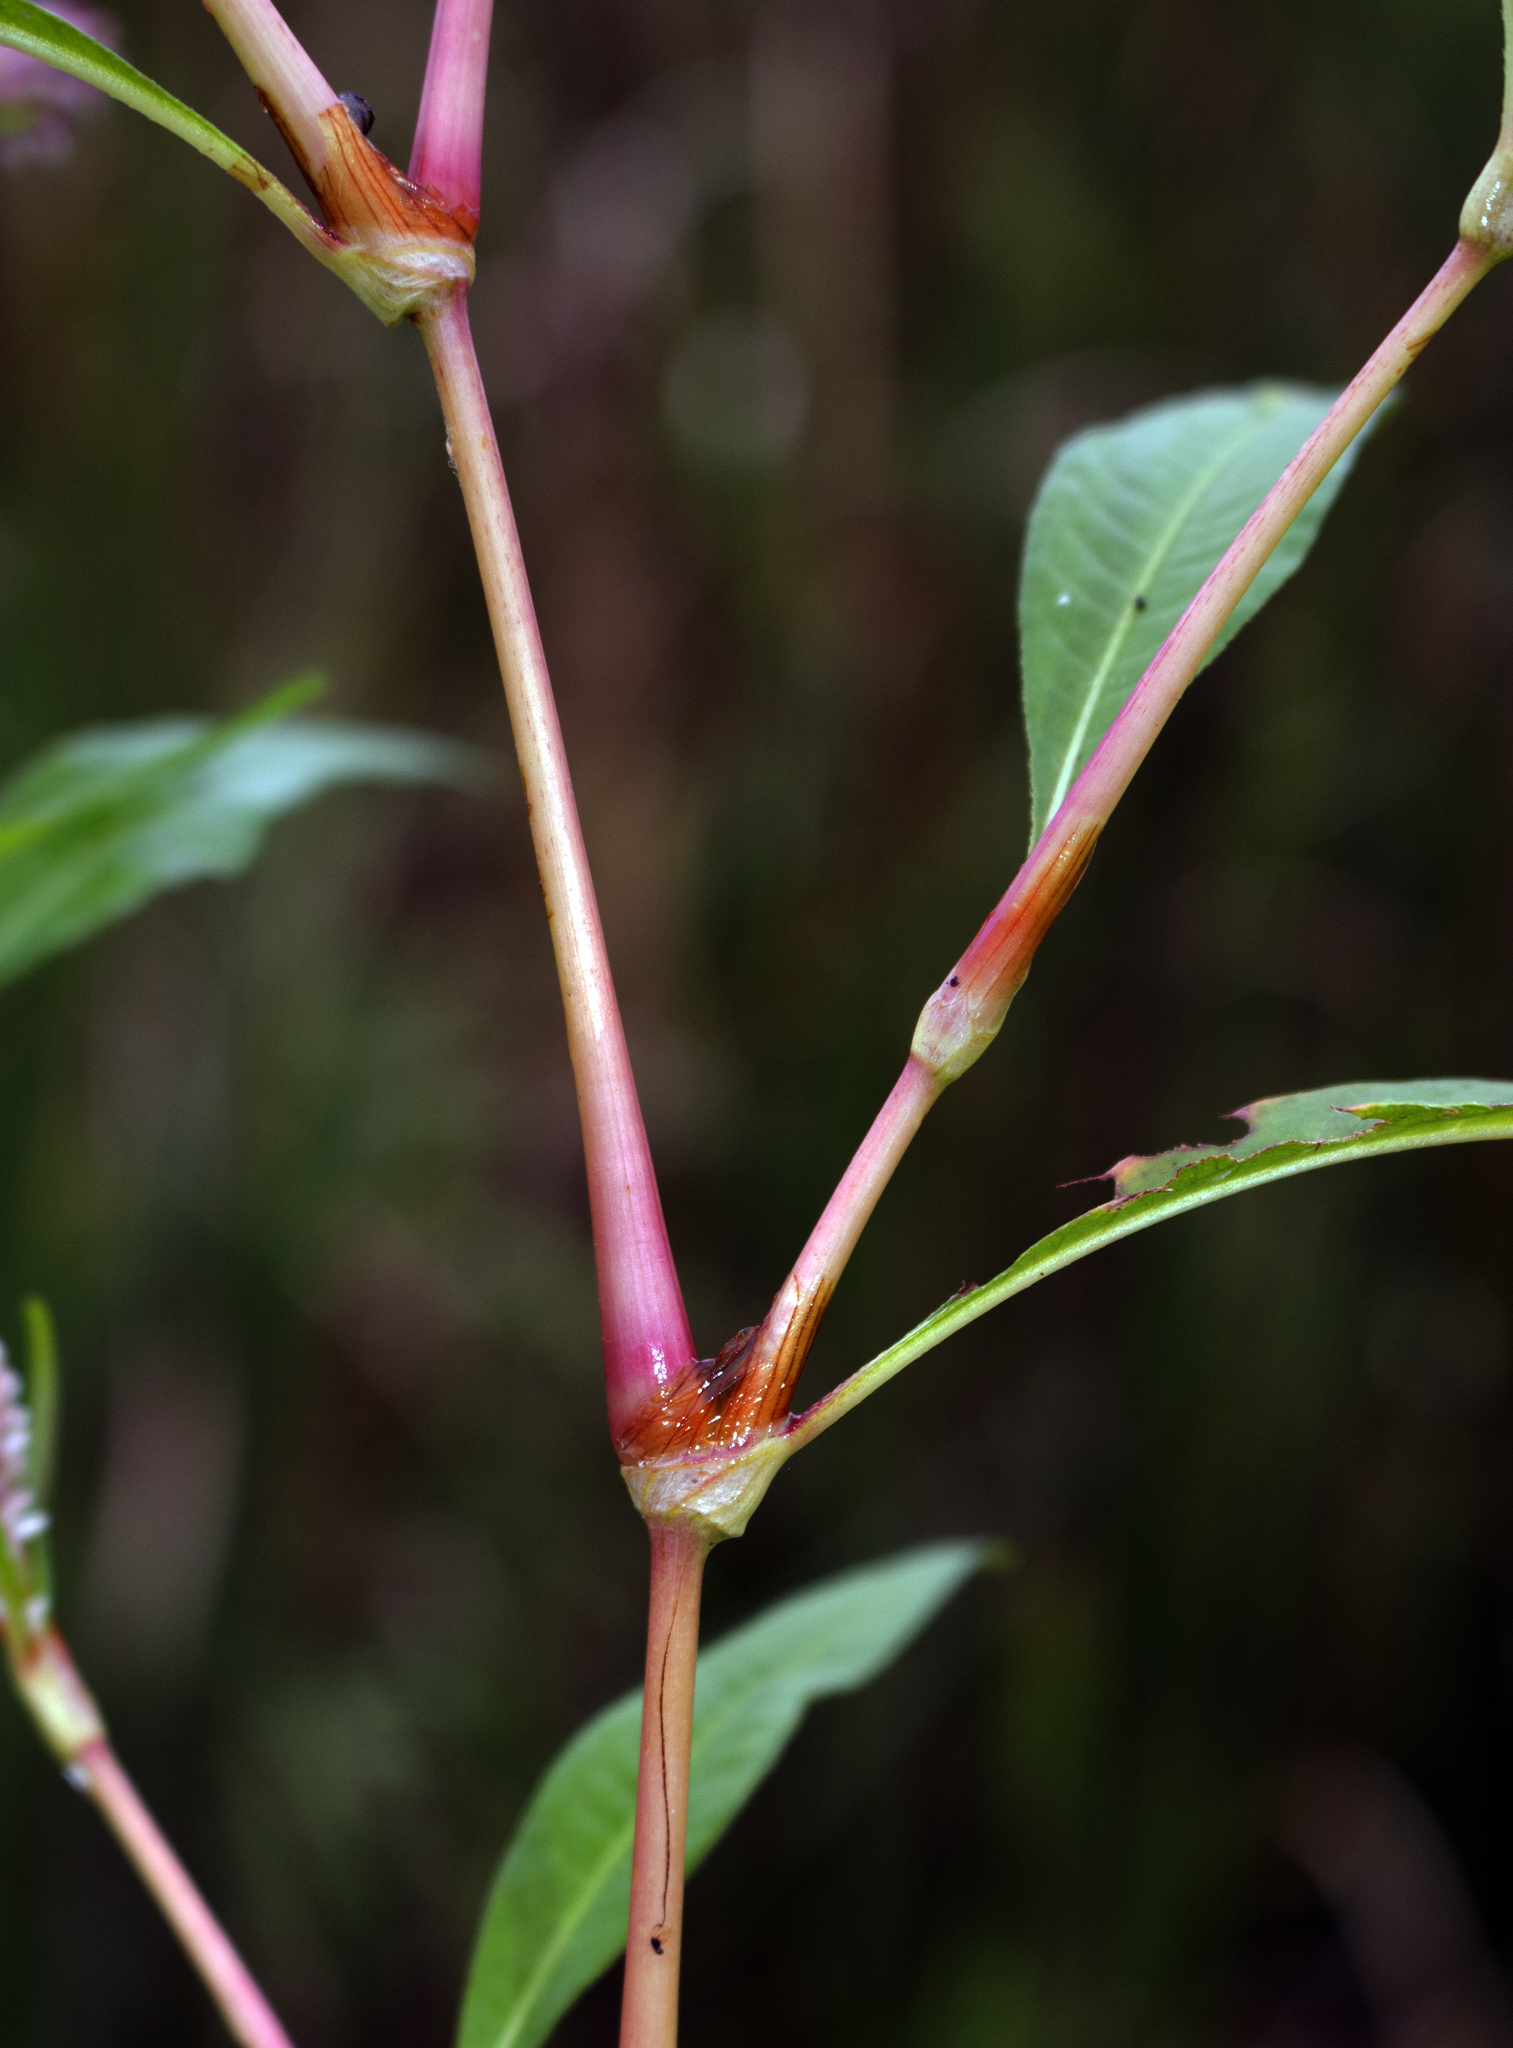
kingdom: Plantae
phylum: Tracheophyta
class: Magnoliopsida
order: Caryophyllales
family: Polygonaceae
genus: Persicaria
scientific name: Persicaria lapathifolia
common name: Curlytop knotweed
